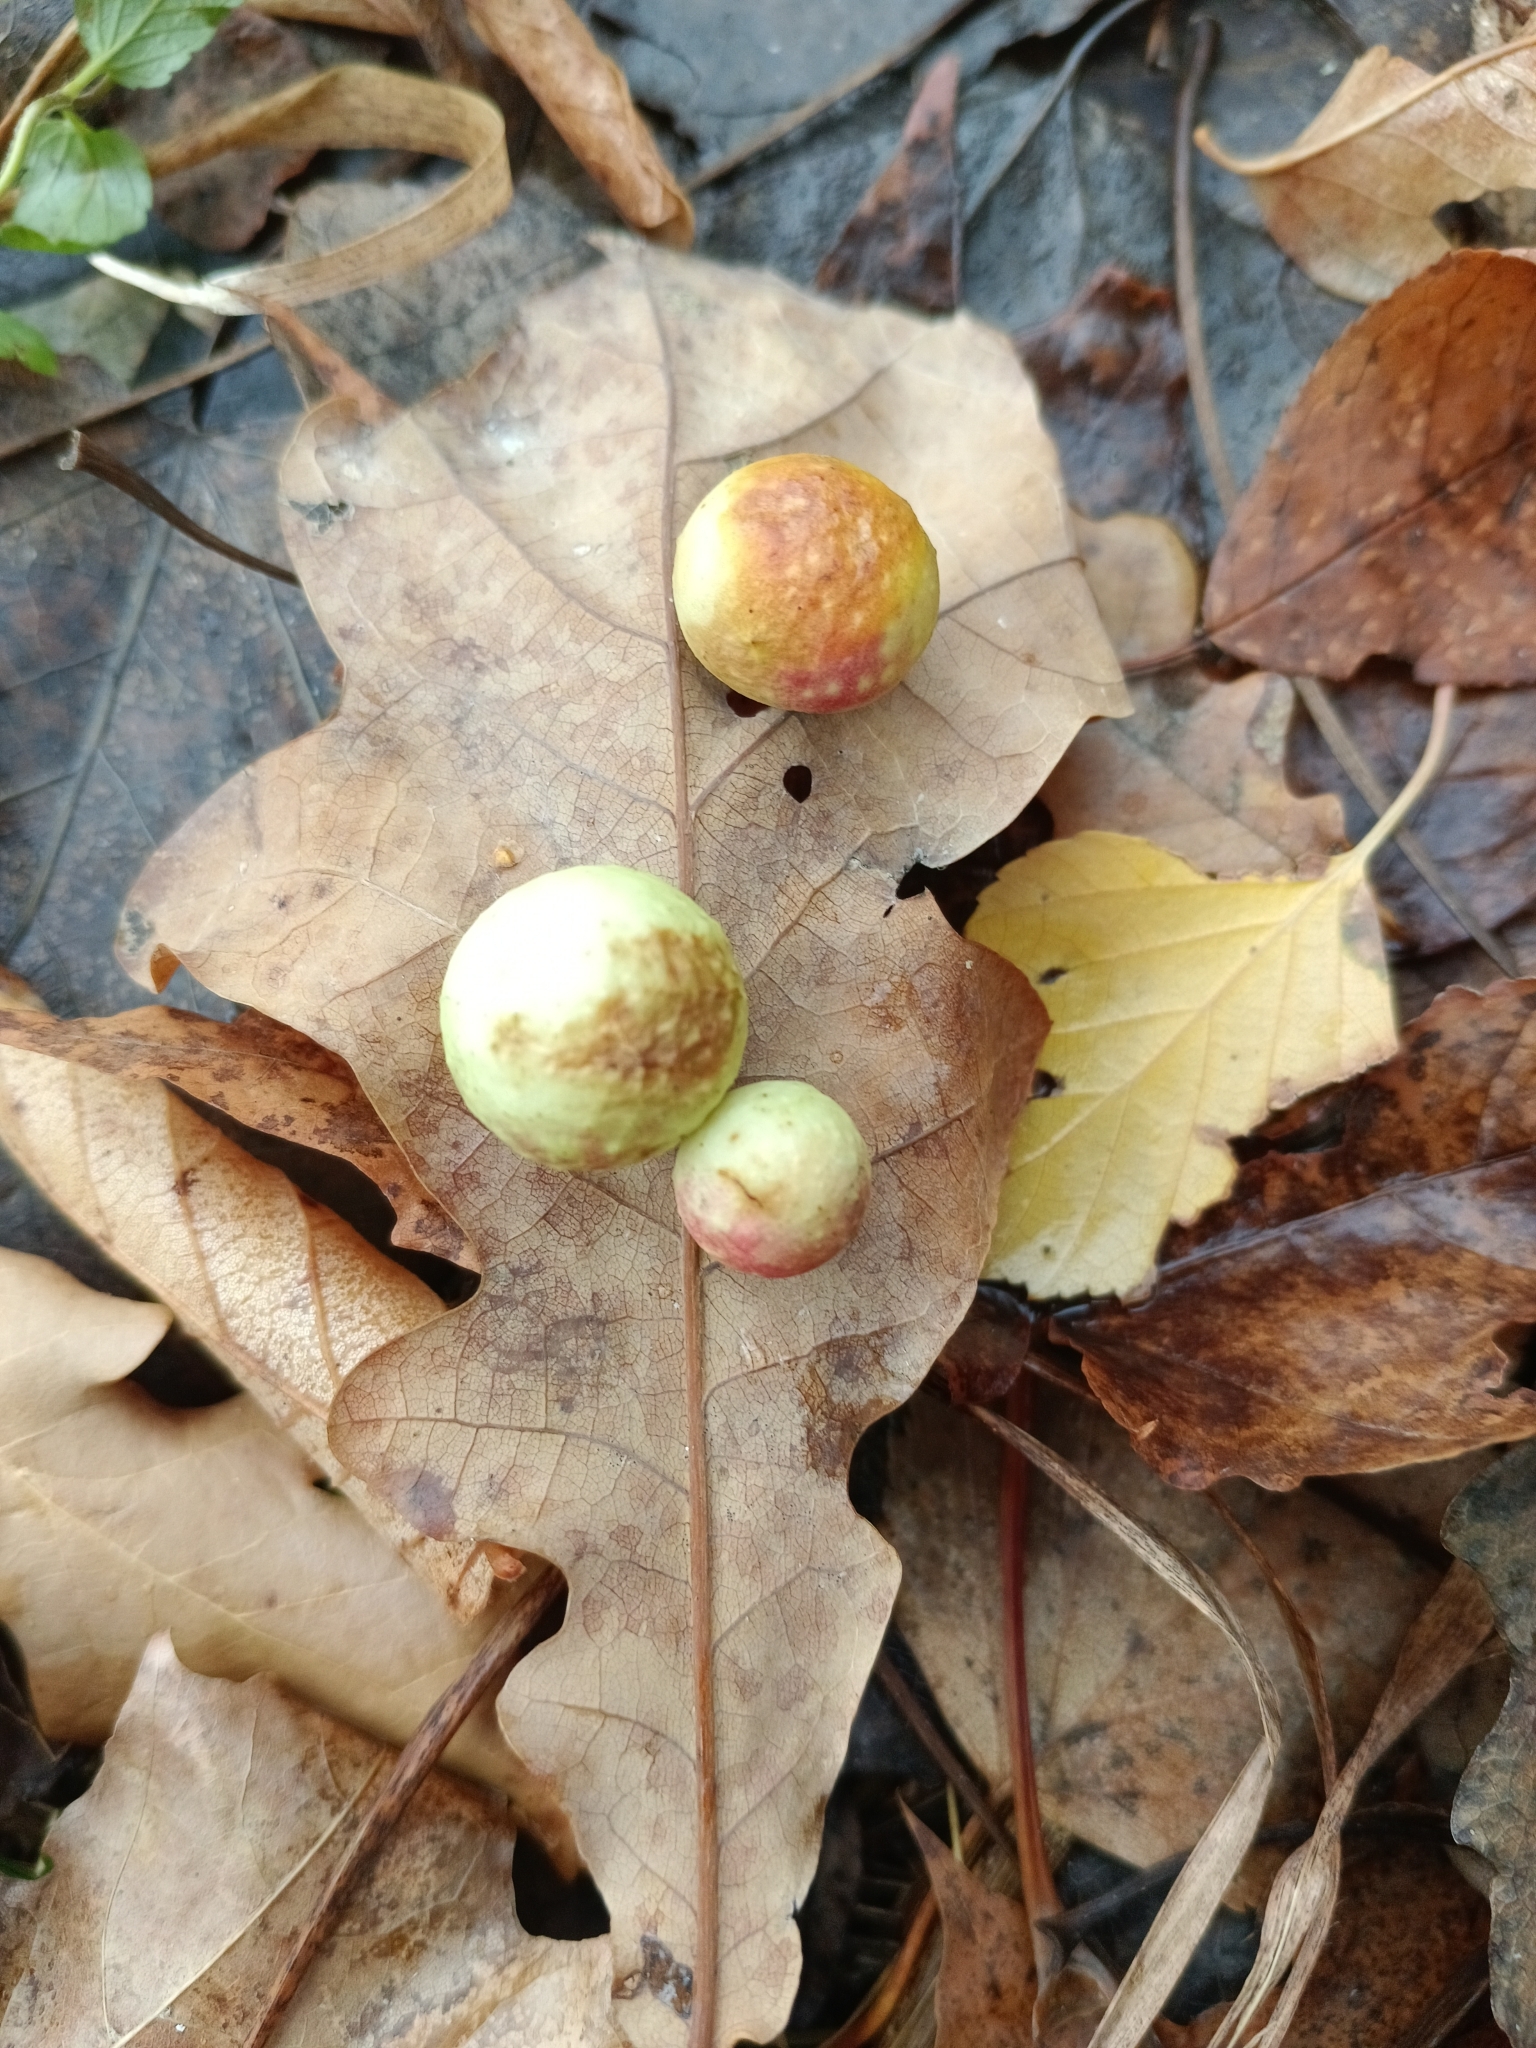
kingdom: Animalia
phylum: Arthropoda
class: Insecta
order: Hymenoptera
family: Cynipidae
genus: Cynips
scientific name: Cynips quercusfolii
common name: Cherry gall
